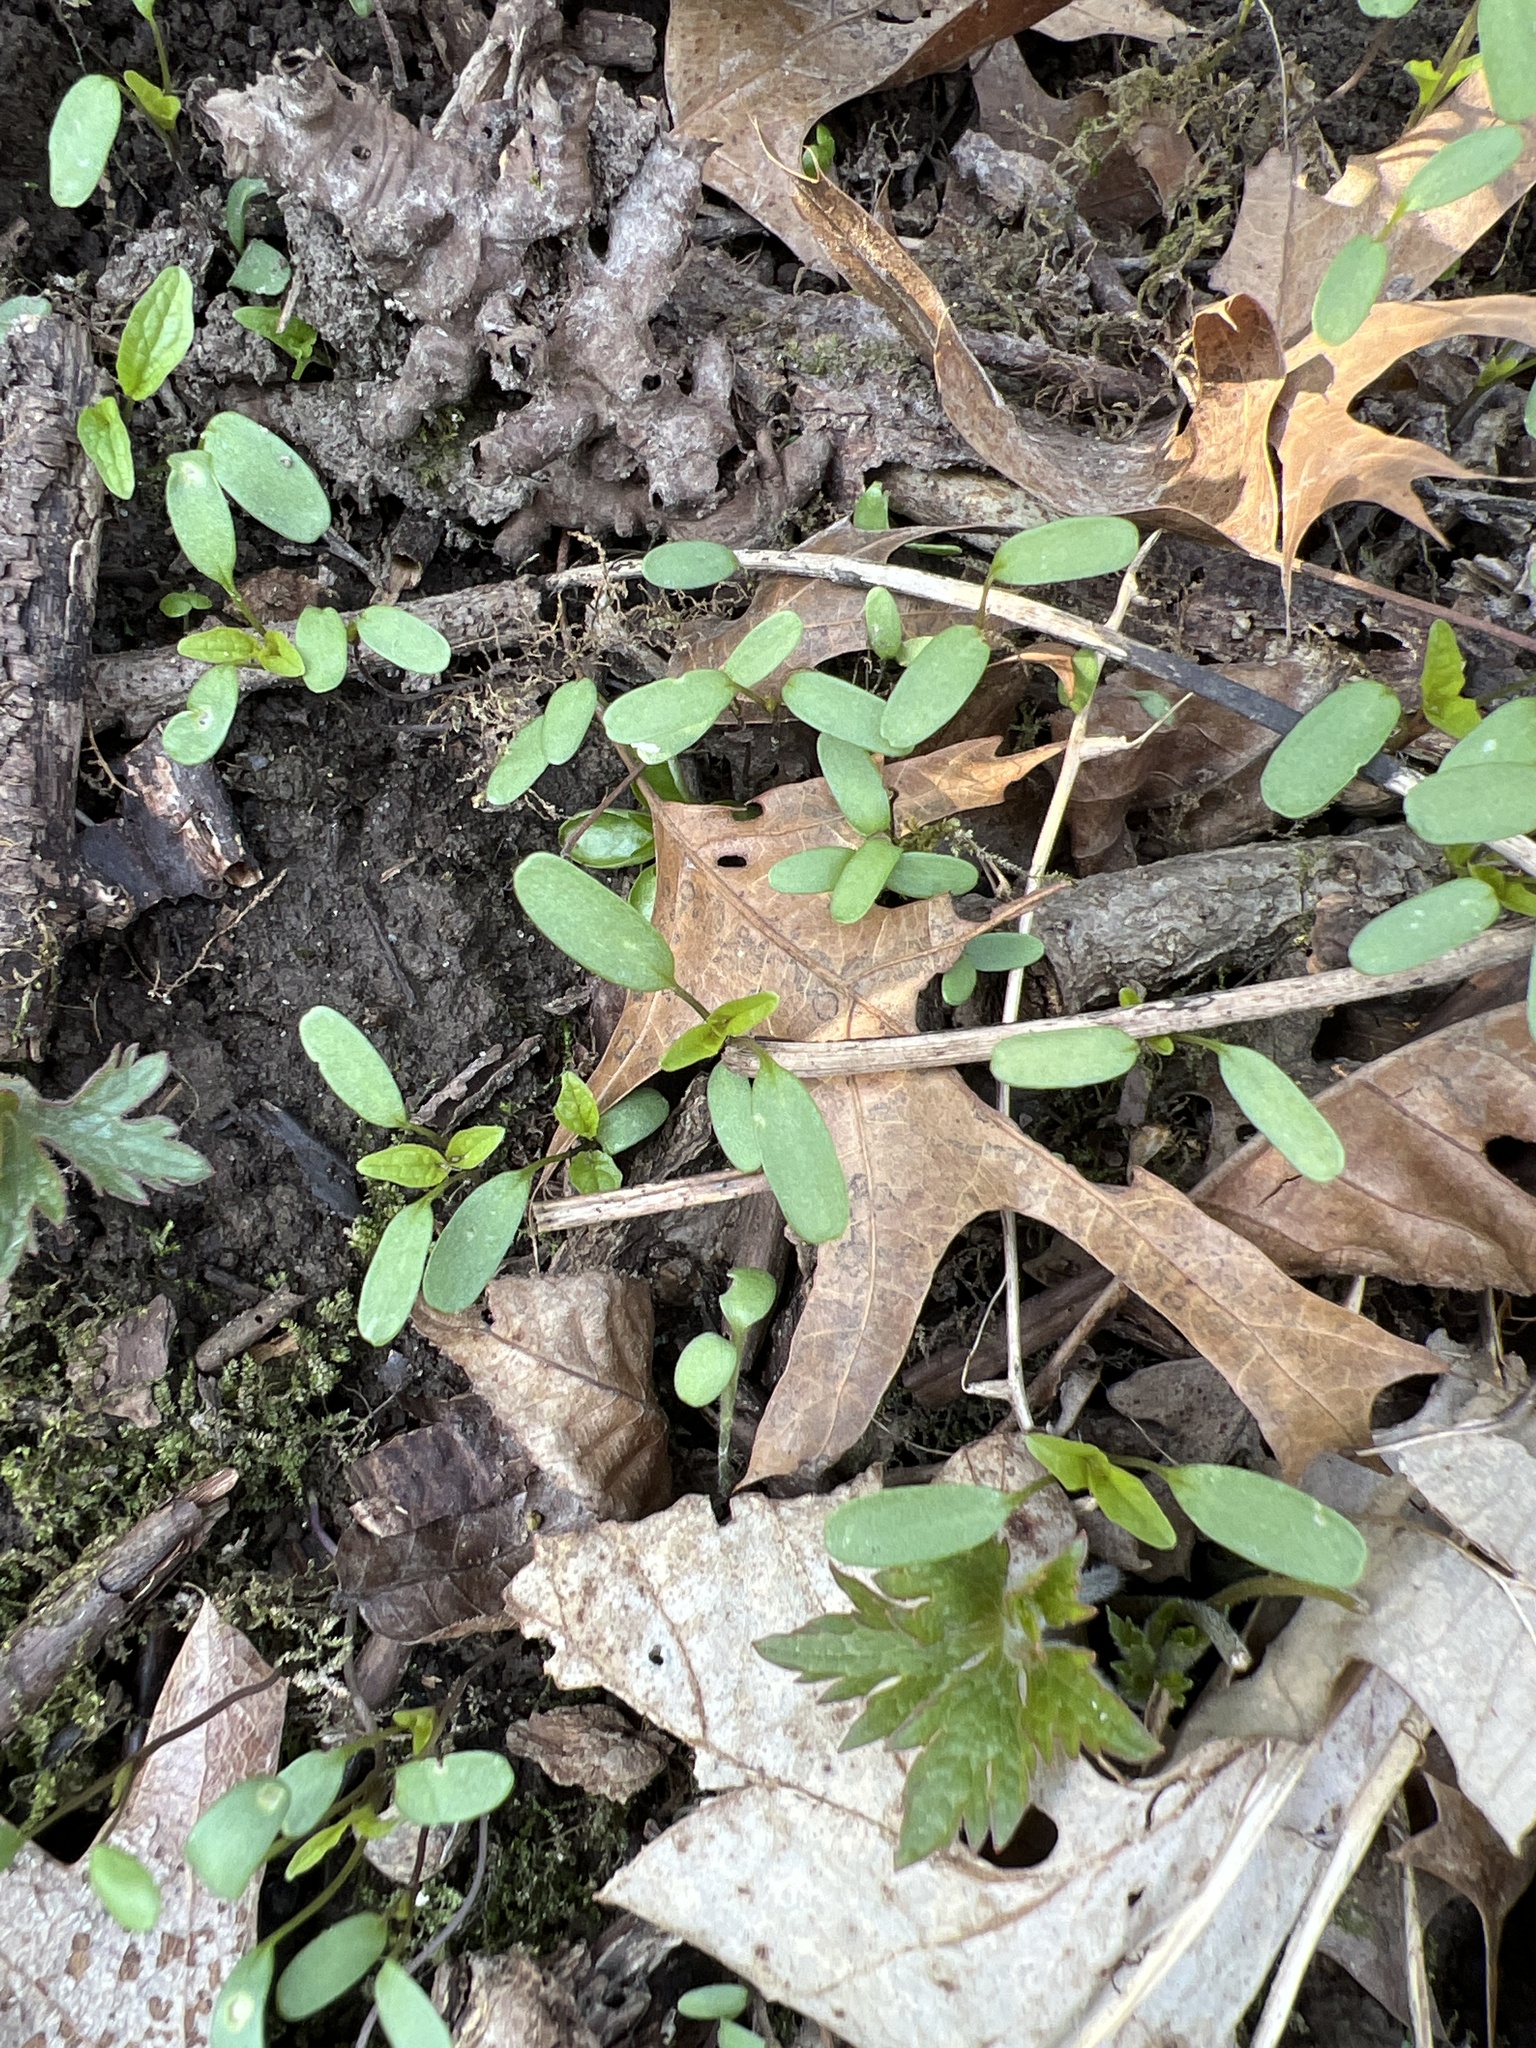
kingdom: Plantae
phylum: Tracheophyta
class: Magnoliopsida
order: Brassicales
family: Brassicaceae
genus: Alliaria
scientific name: Alliaria petiolata
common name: Garlic mustard
